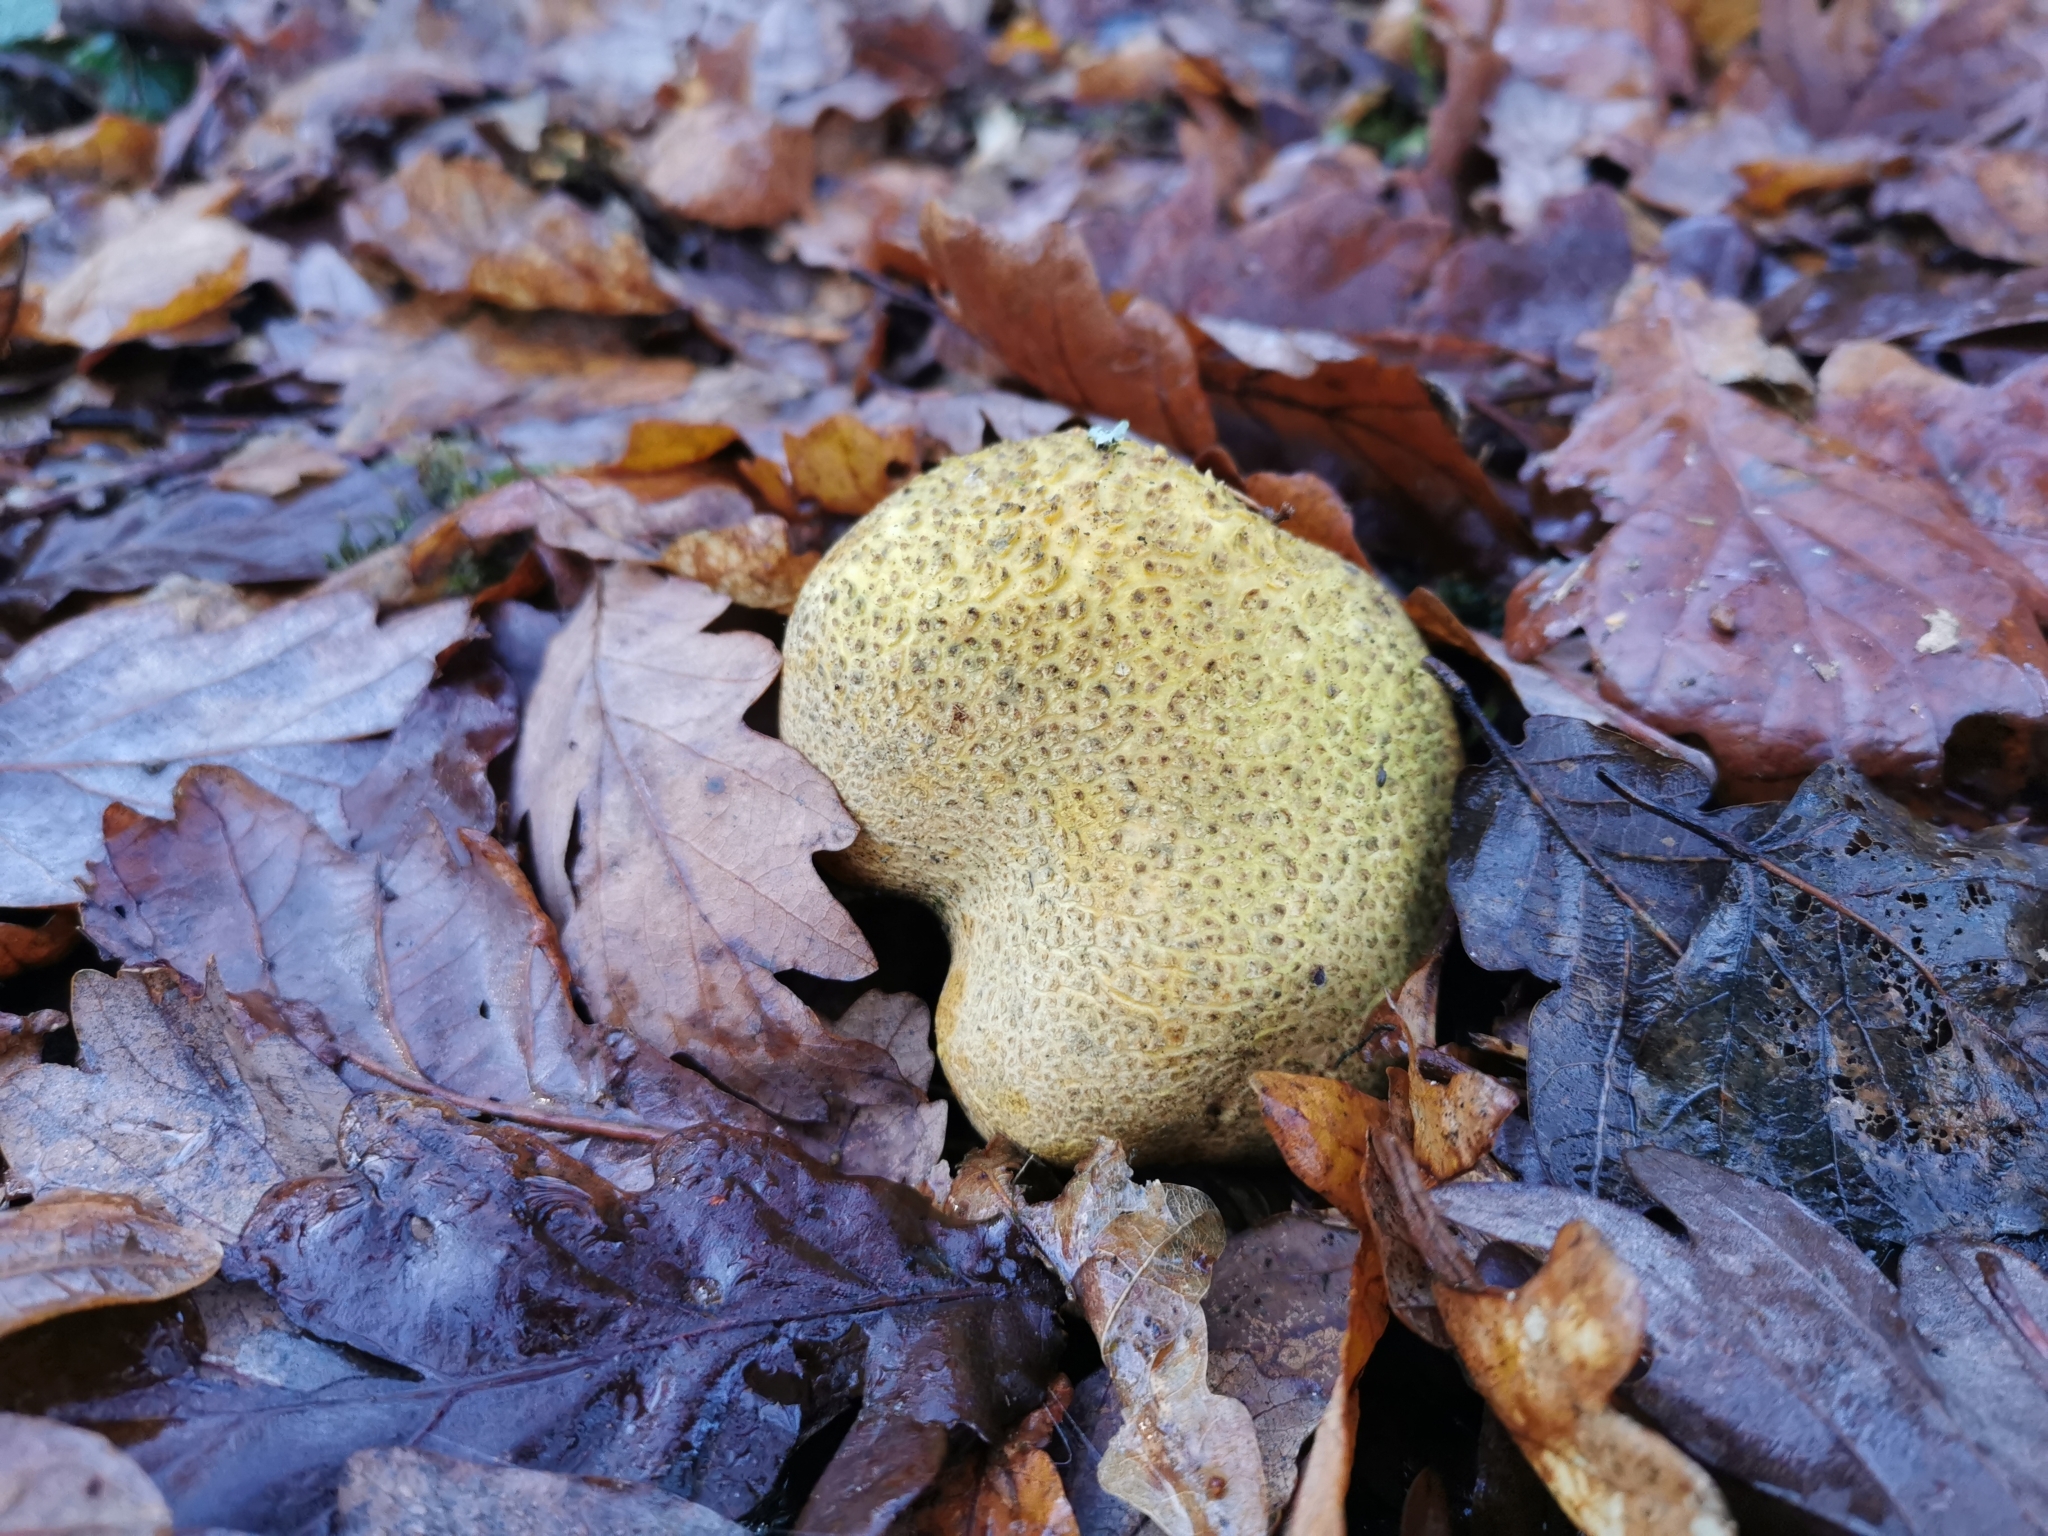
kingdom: Fungi
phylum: Basidiomycota
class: Agaricomycetes
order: Boletales
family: Sclerodermataceae
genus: Scleroderma
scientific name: Scleroderma citrinum
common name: Common earthball
